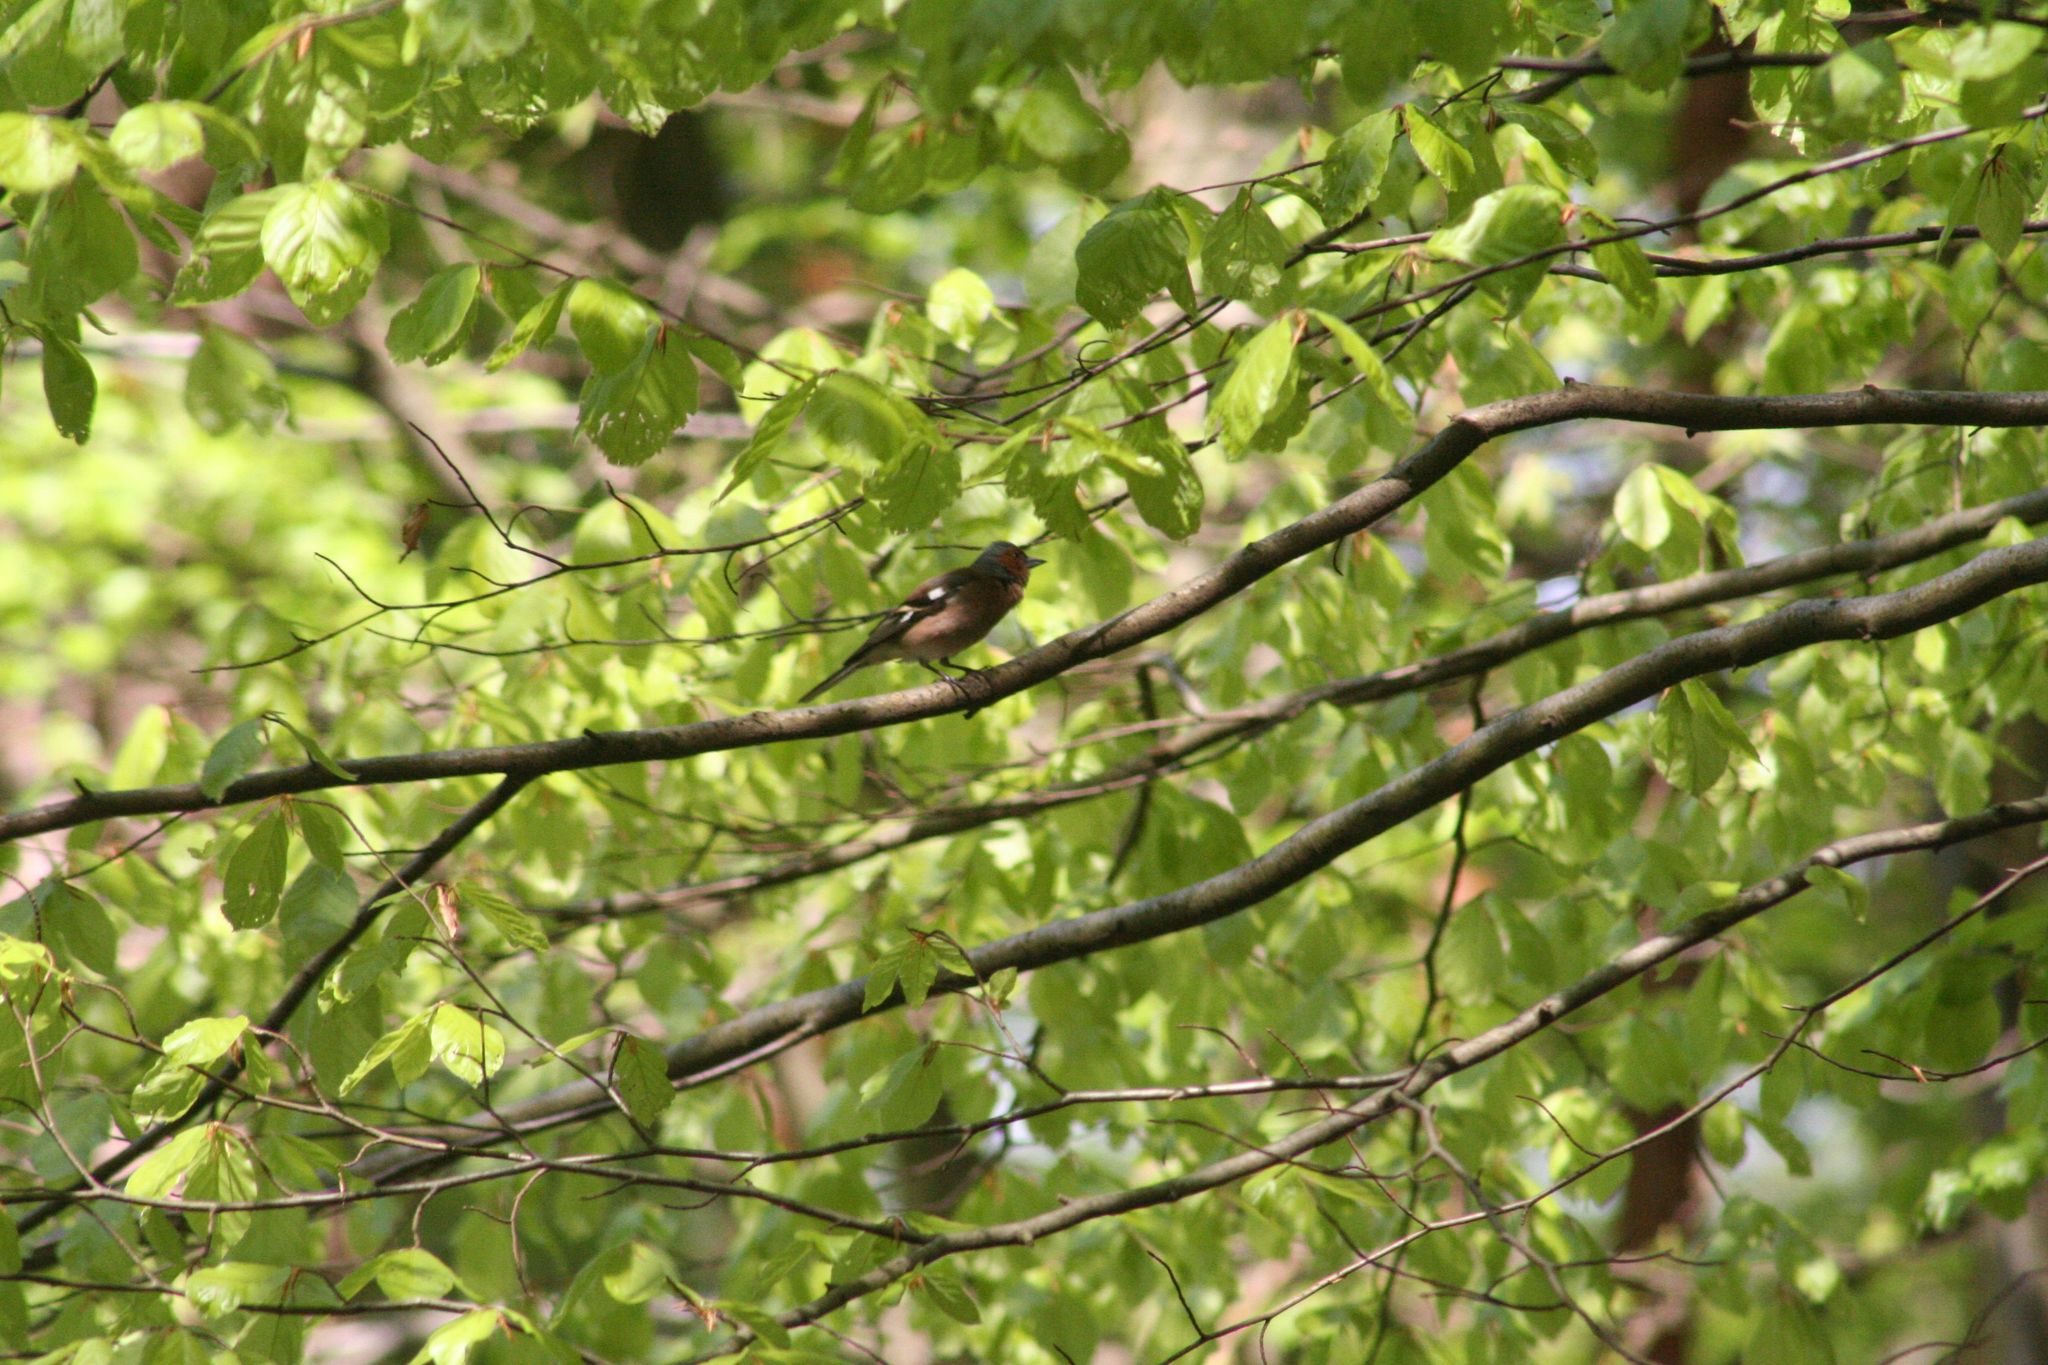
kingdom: Animalia
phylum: Chordata
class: Aves
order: Passeriformes
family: Fringillidae
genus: Fringilla
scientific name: Fringilla coelebs
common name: Common chaffinch
